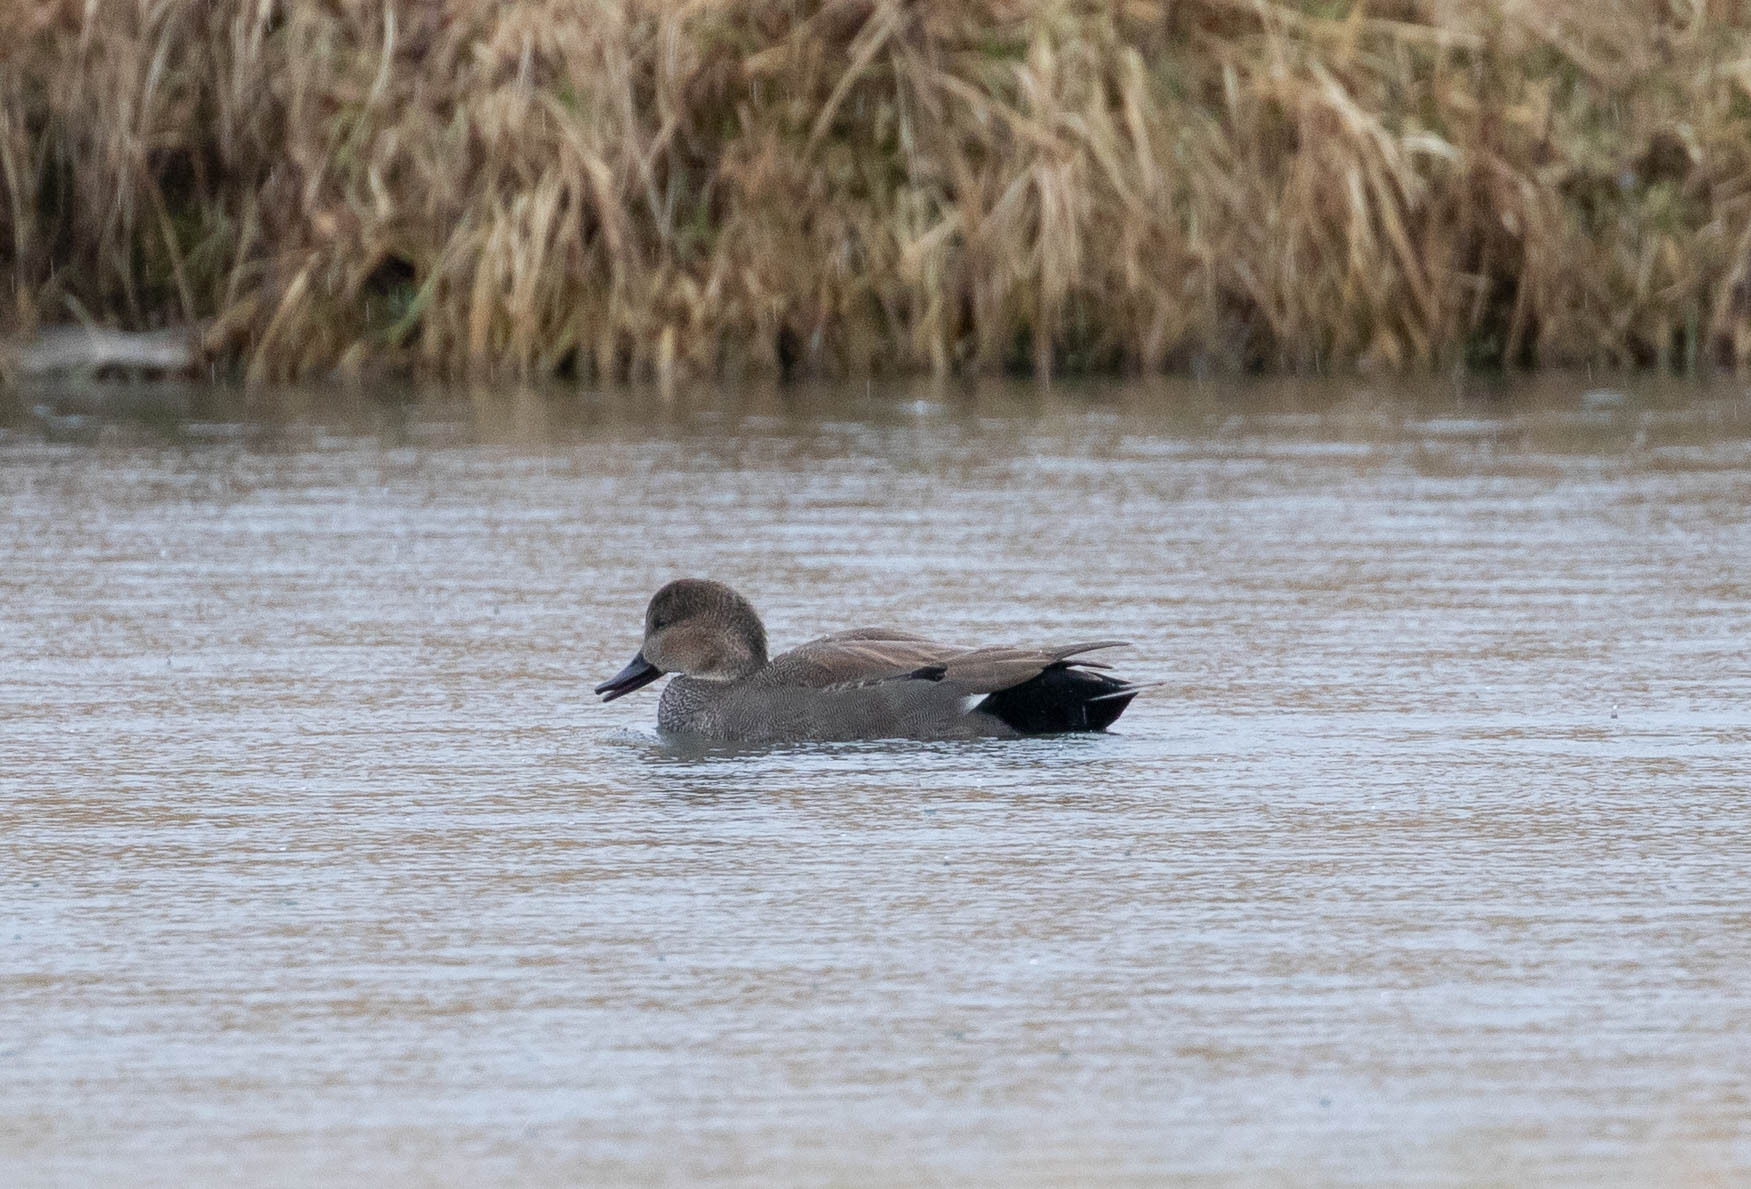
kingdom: Animalia
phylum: Chordata
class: Aves
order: Anseriformes
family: Anatidae
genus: Mareca
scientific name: Mareca strepera
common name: Gadwall
